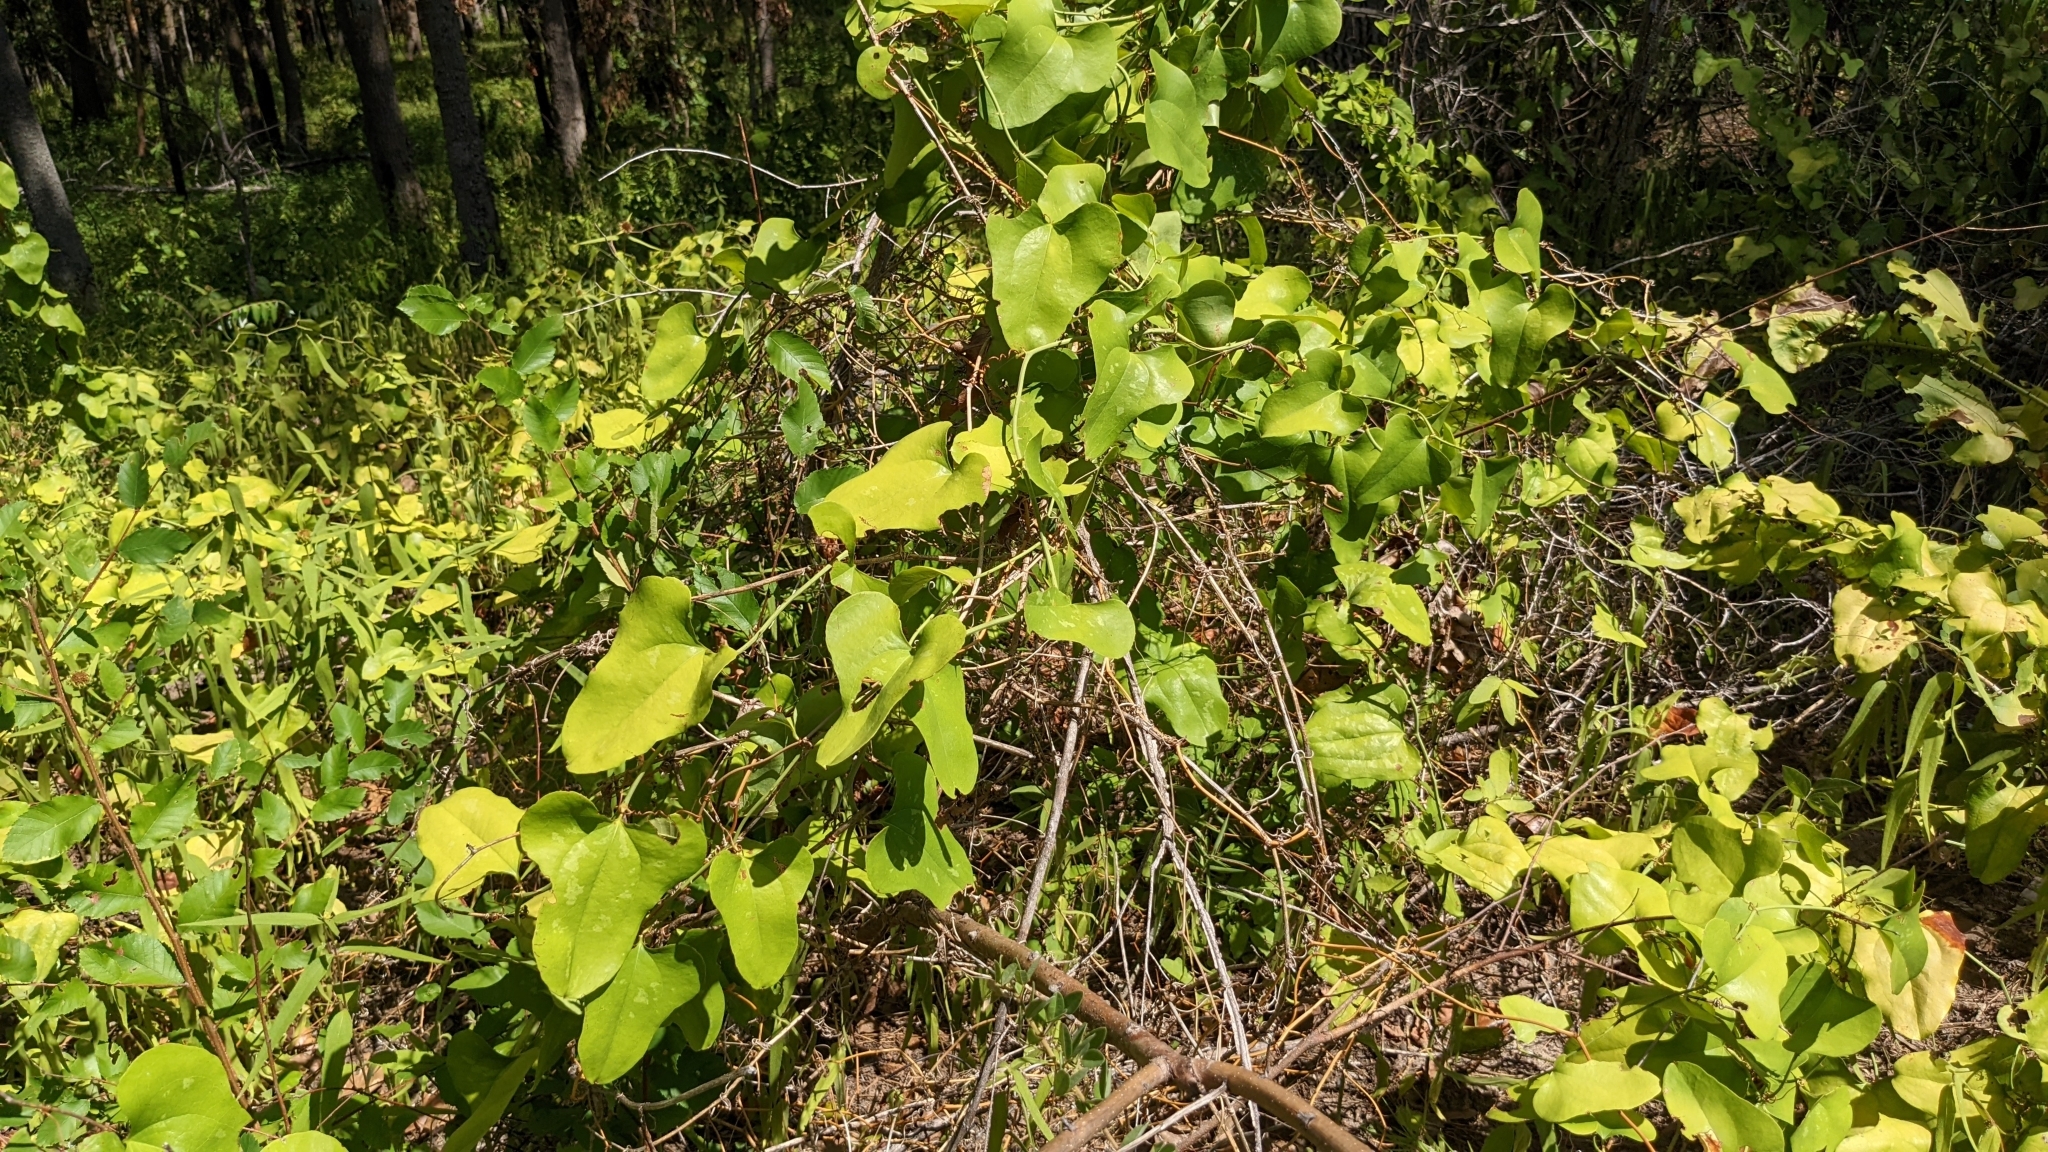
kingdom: Plantae
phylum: Tracheophyta
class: Liliopsida
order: Liliales
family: Smilacaceae
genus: Smilax
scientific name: Smilax bona-nox
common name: Catbrier
